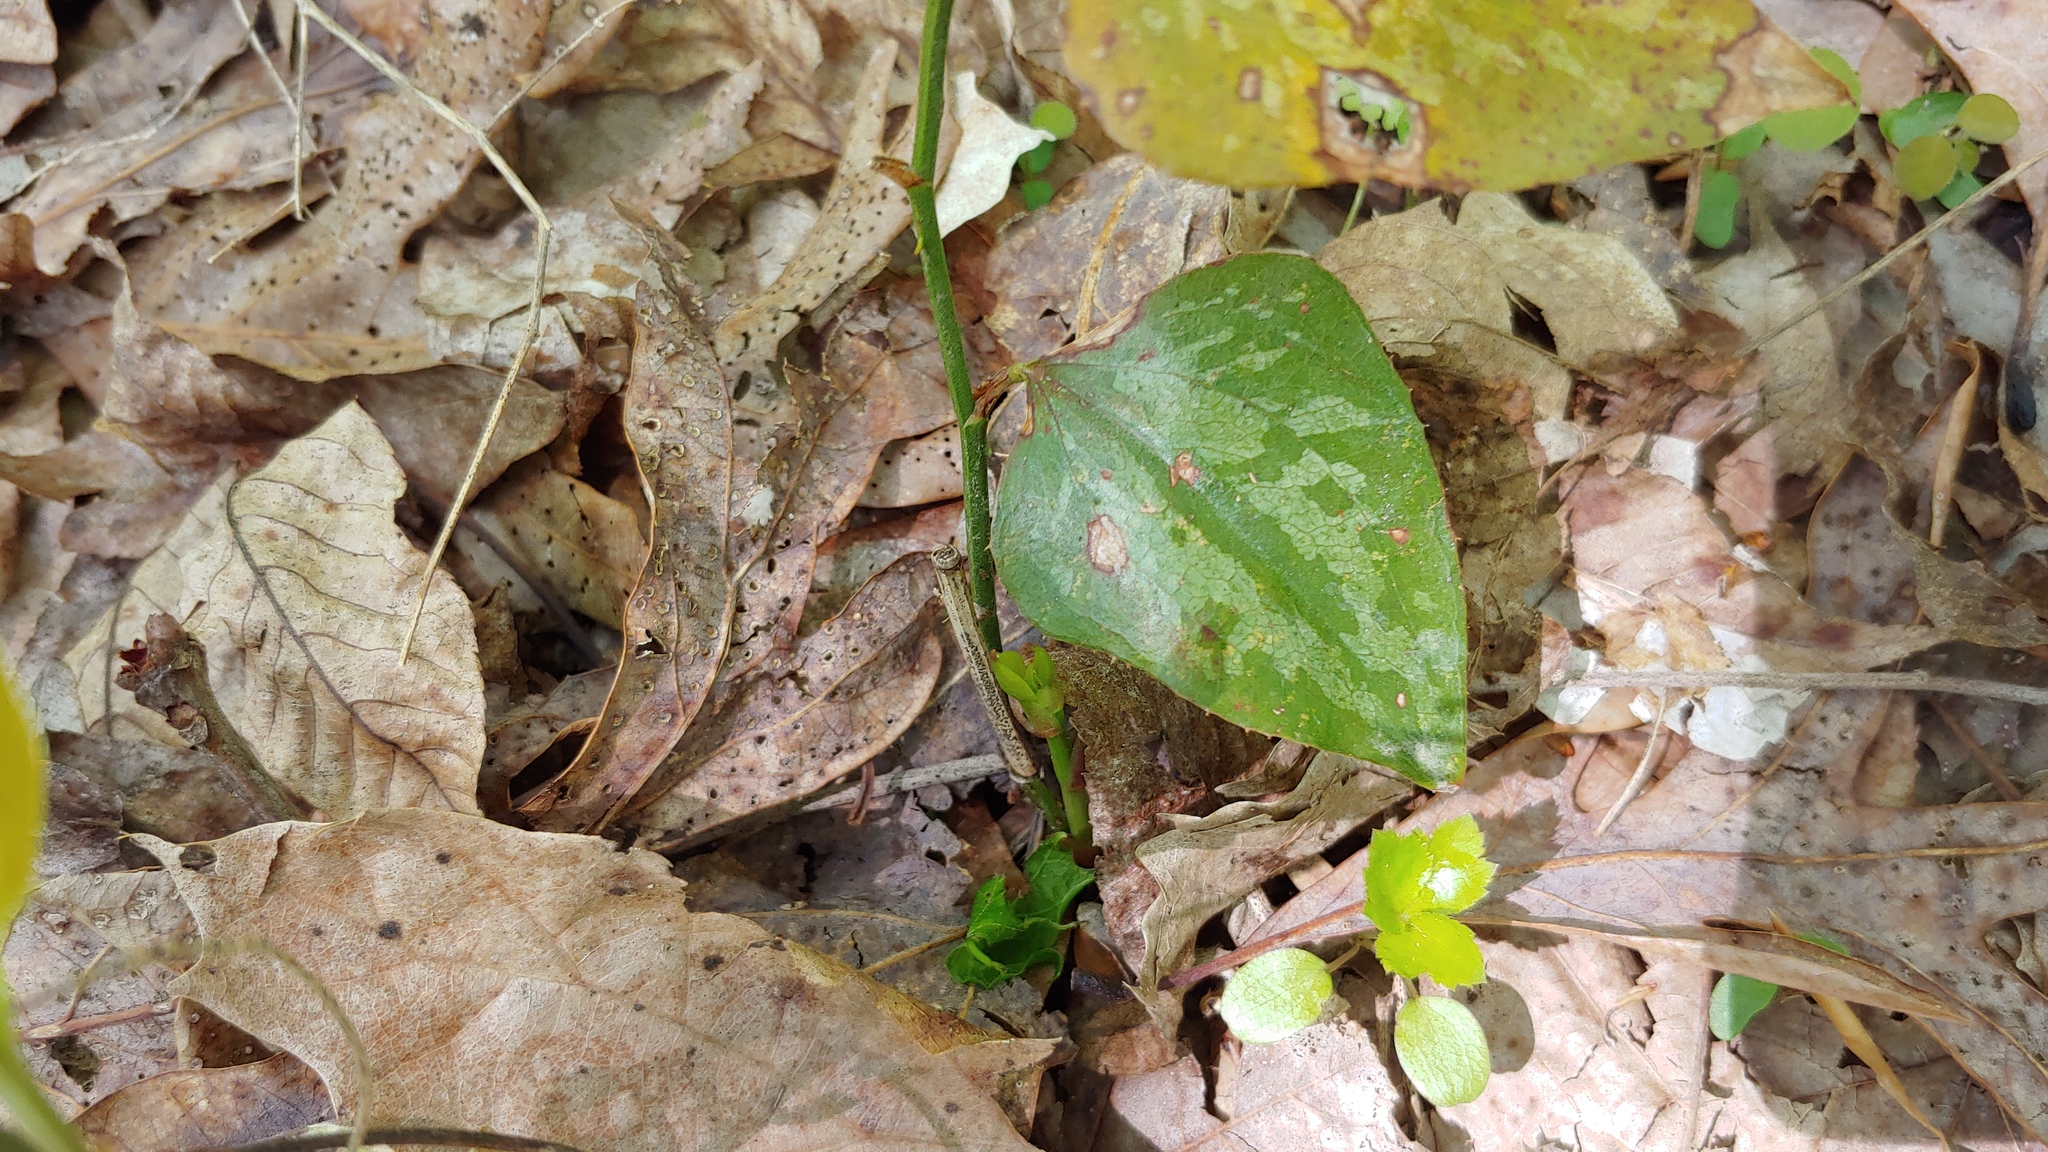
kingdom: Plantae
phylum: Tracheophyta
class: Liliopsida
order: Liliales
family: Smilacaceae
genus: Smilax
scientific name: Smilax bona-nox
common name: Catbrier
